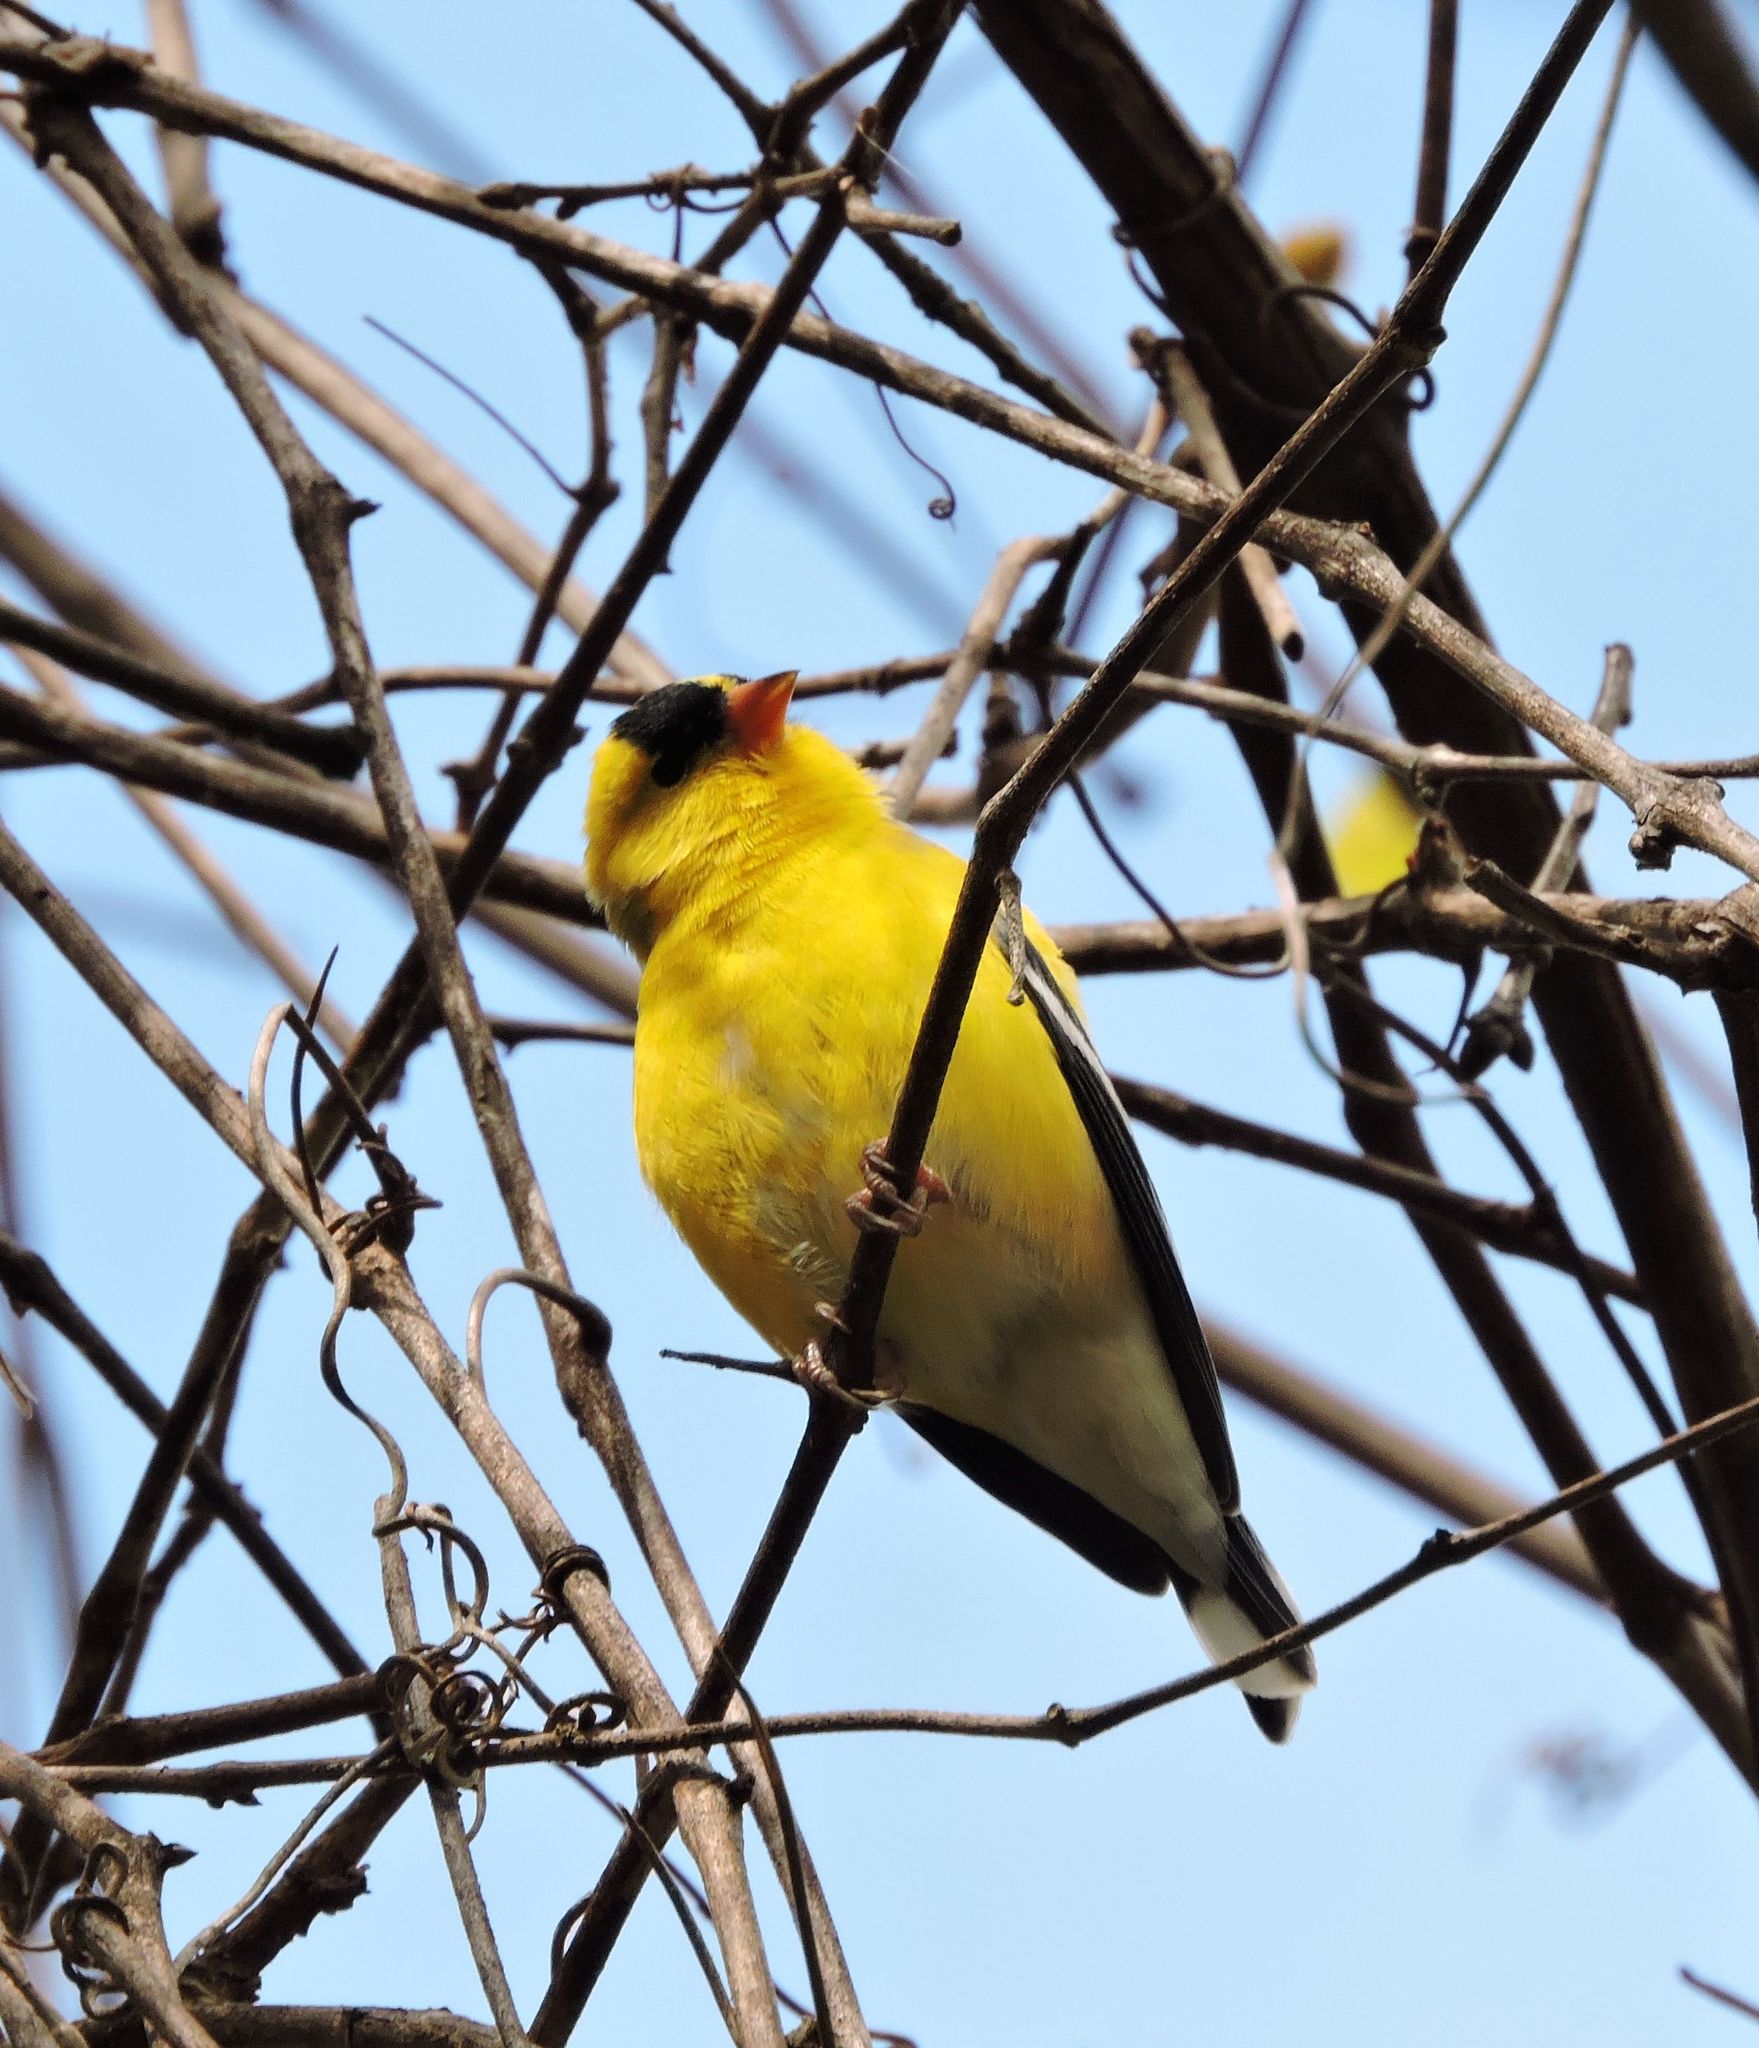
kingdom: Animalia
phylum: Chordata
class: Aves
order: Passeriformes
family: Fringillidae
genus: Spinus
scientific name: Spinus tristis
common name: American goldfinch
